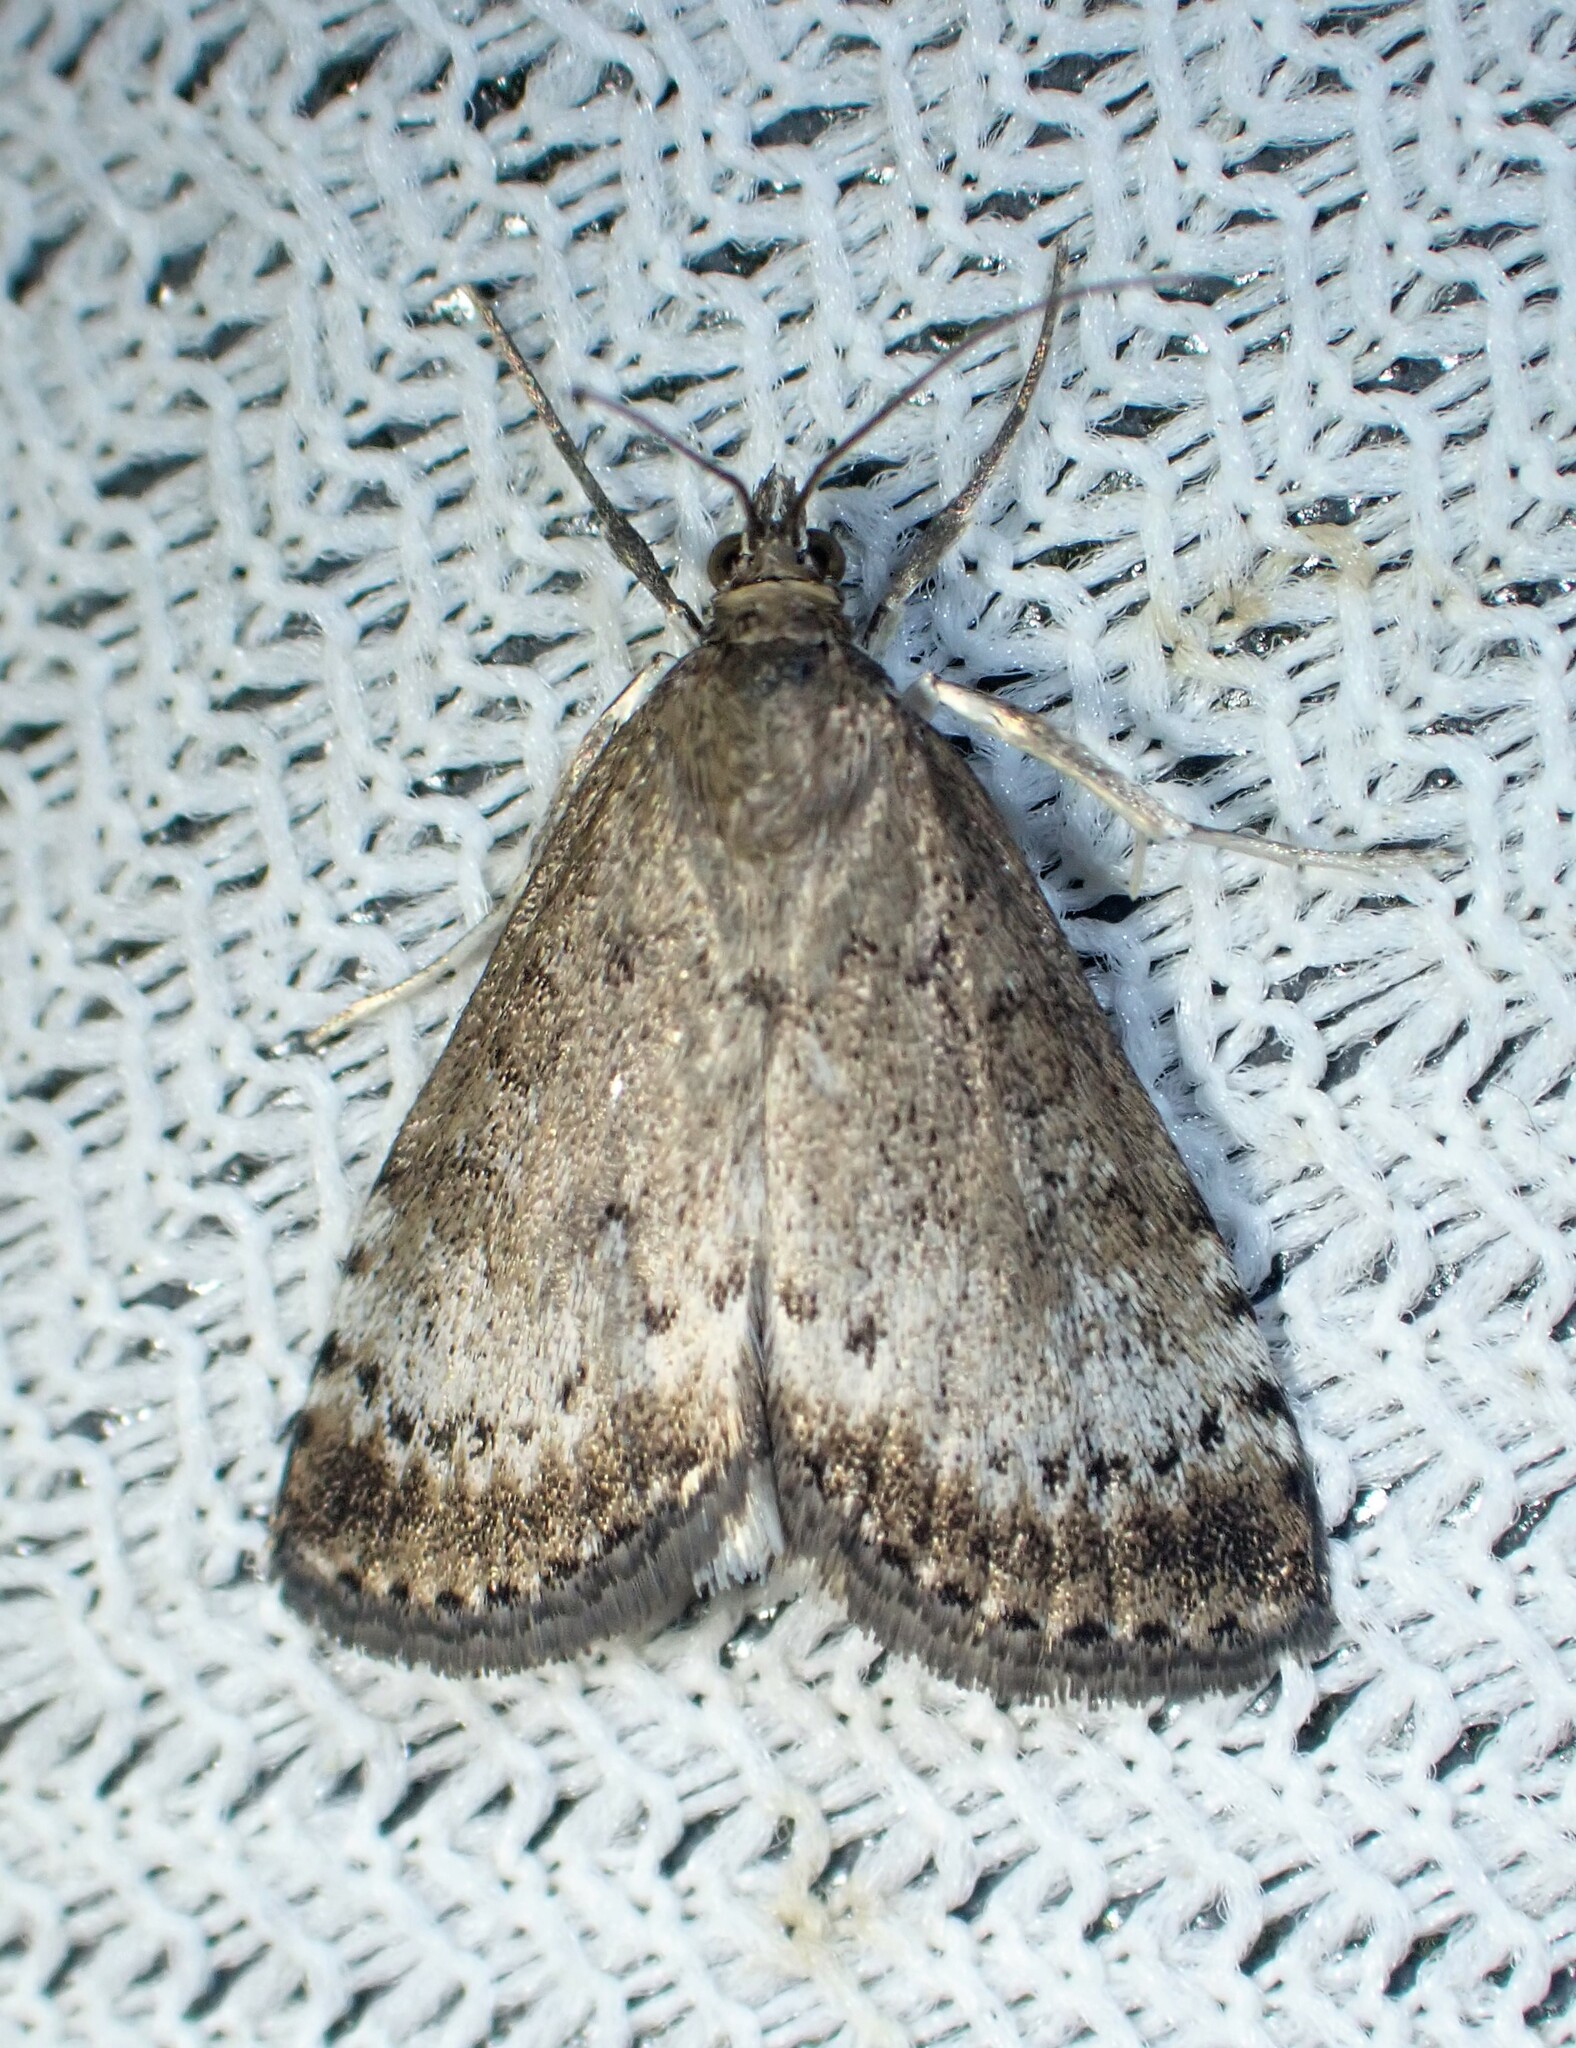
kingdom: Animalia
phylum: Arthropoda
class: Insecta
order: Lepidoptera
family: Crambidae
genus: Udea
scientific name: Udea inquinatalis
